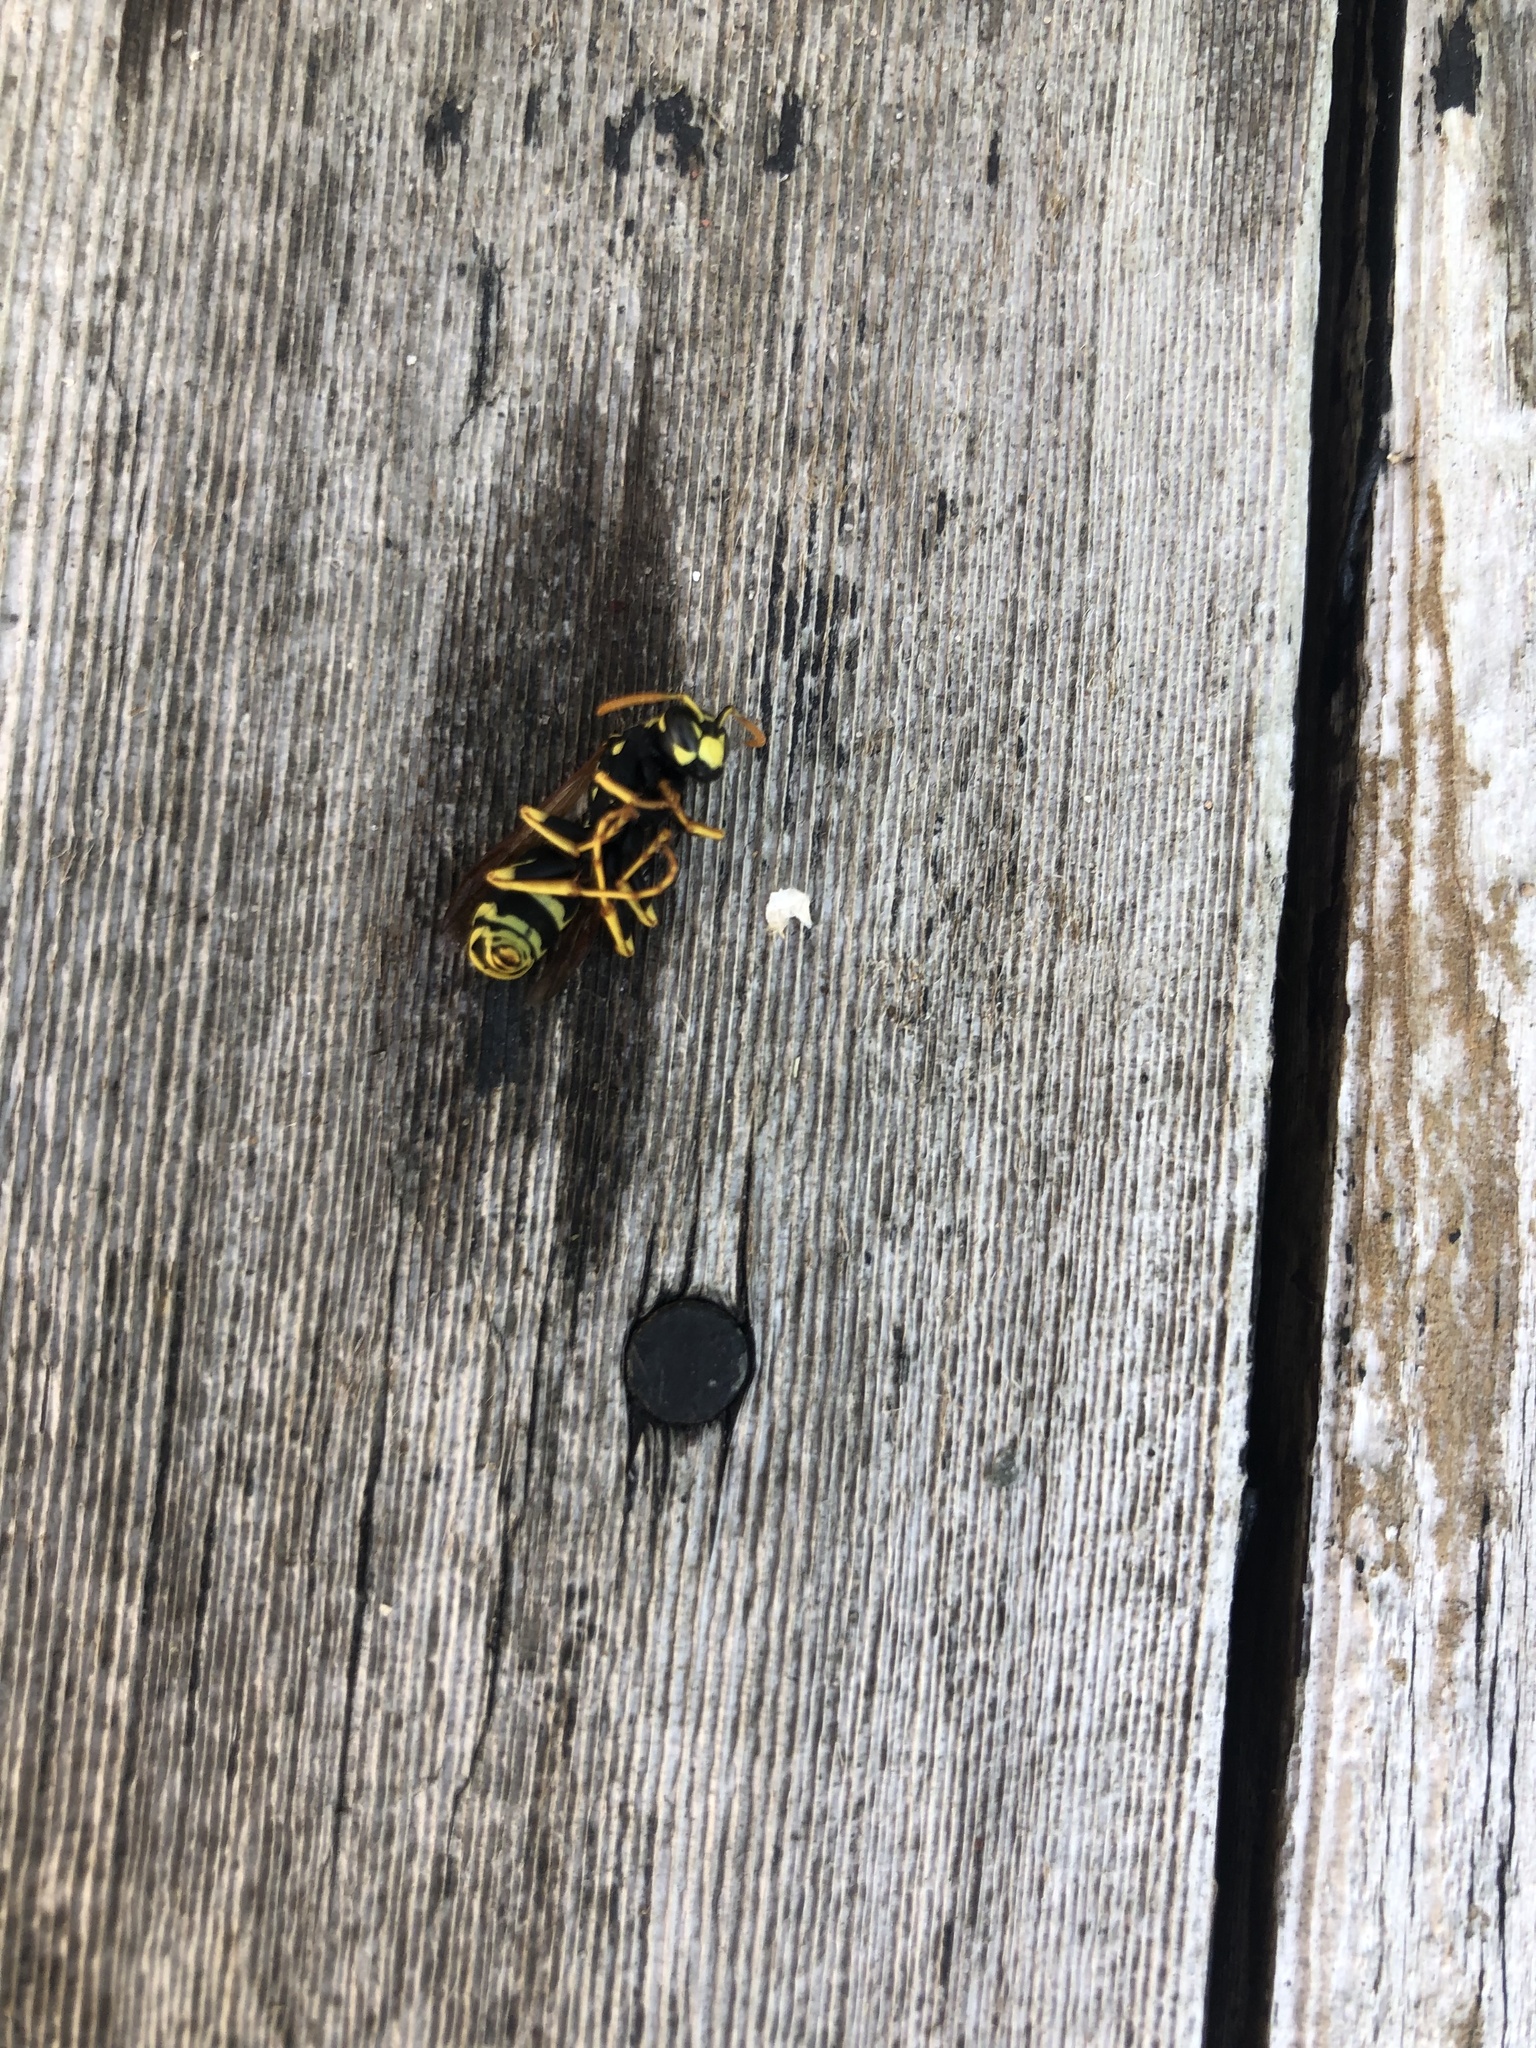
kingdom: Animalia
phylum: Arthropoda
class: Insecta
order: Hymenoptera
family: Eumenidae
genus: Polistes
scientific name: Polistes dominula
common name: Paper wasp
